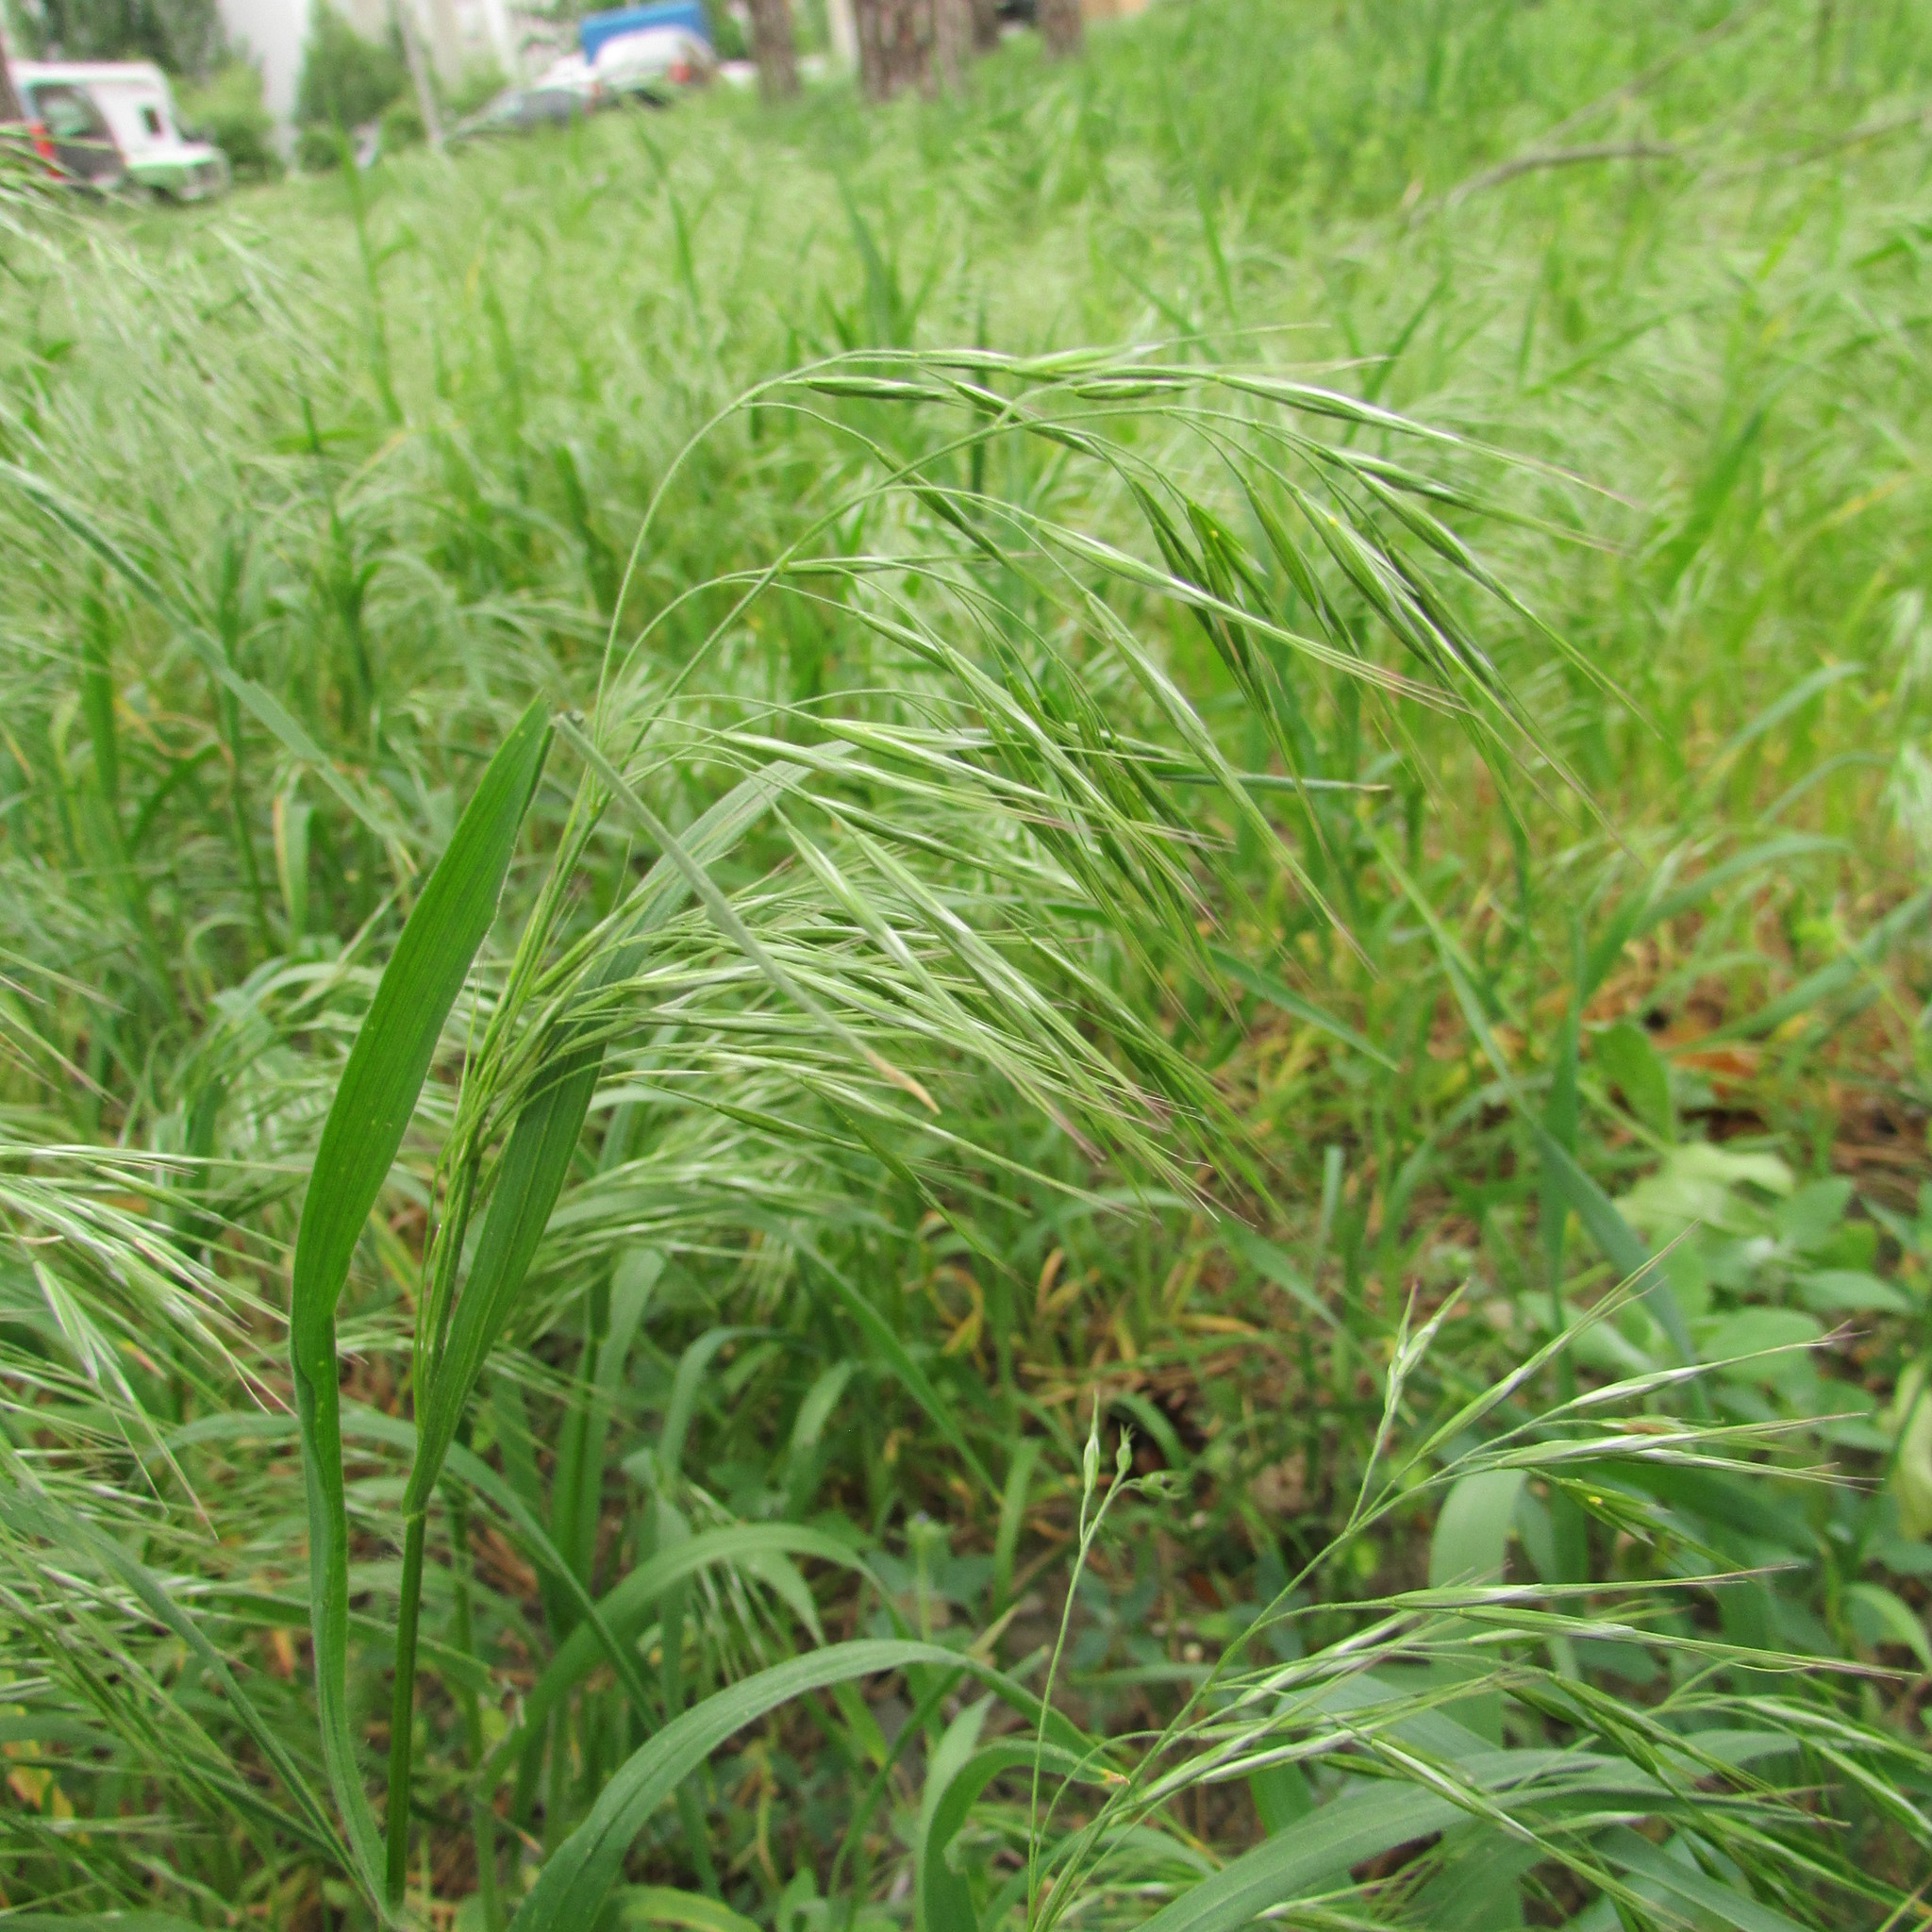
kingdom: Plantae
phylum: Tracheophyta
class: Liliopsida
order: Poales
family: Poaceae
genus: Bromus
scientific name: Bromus tectorum
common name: Cheatgrass
